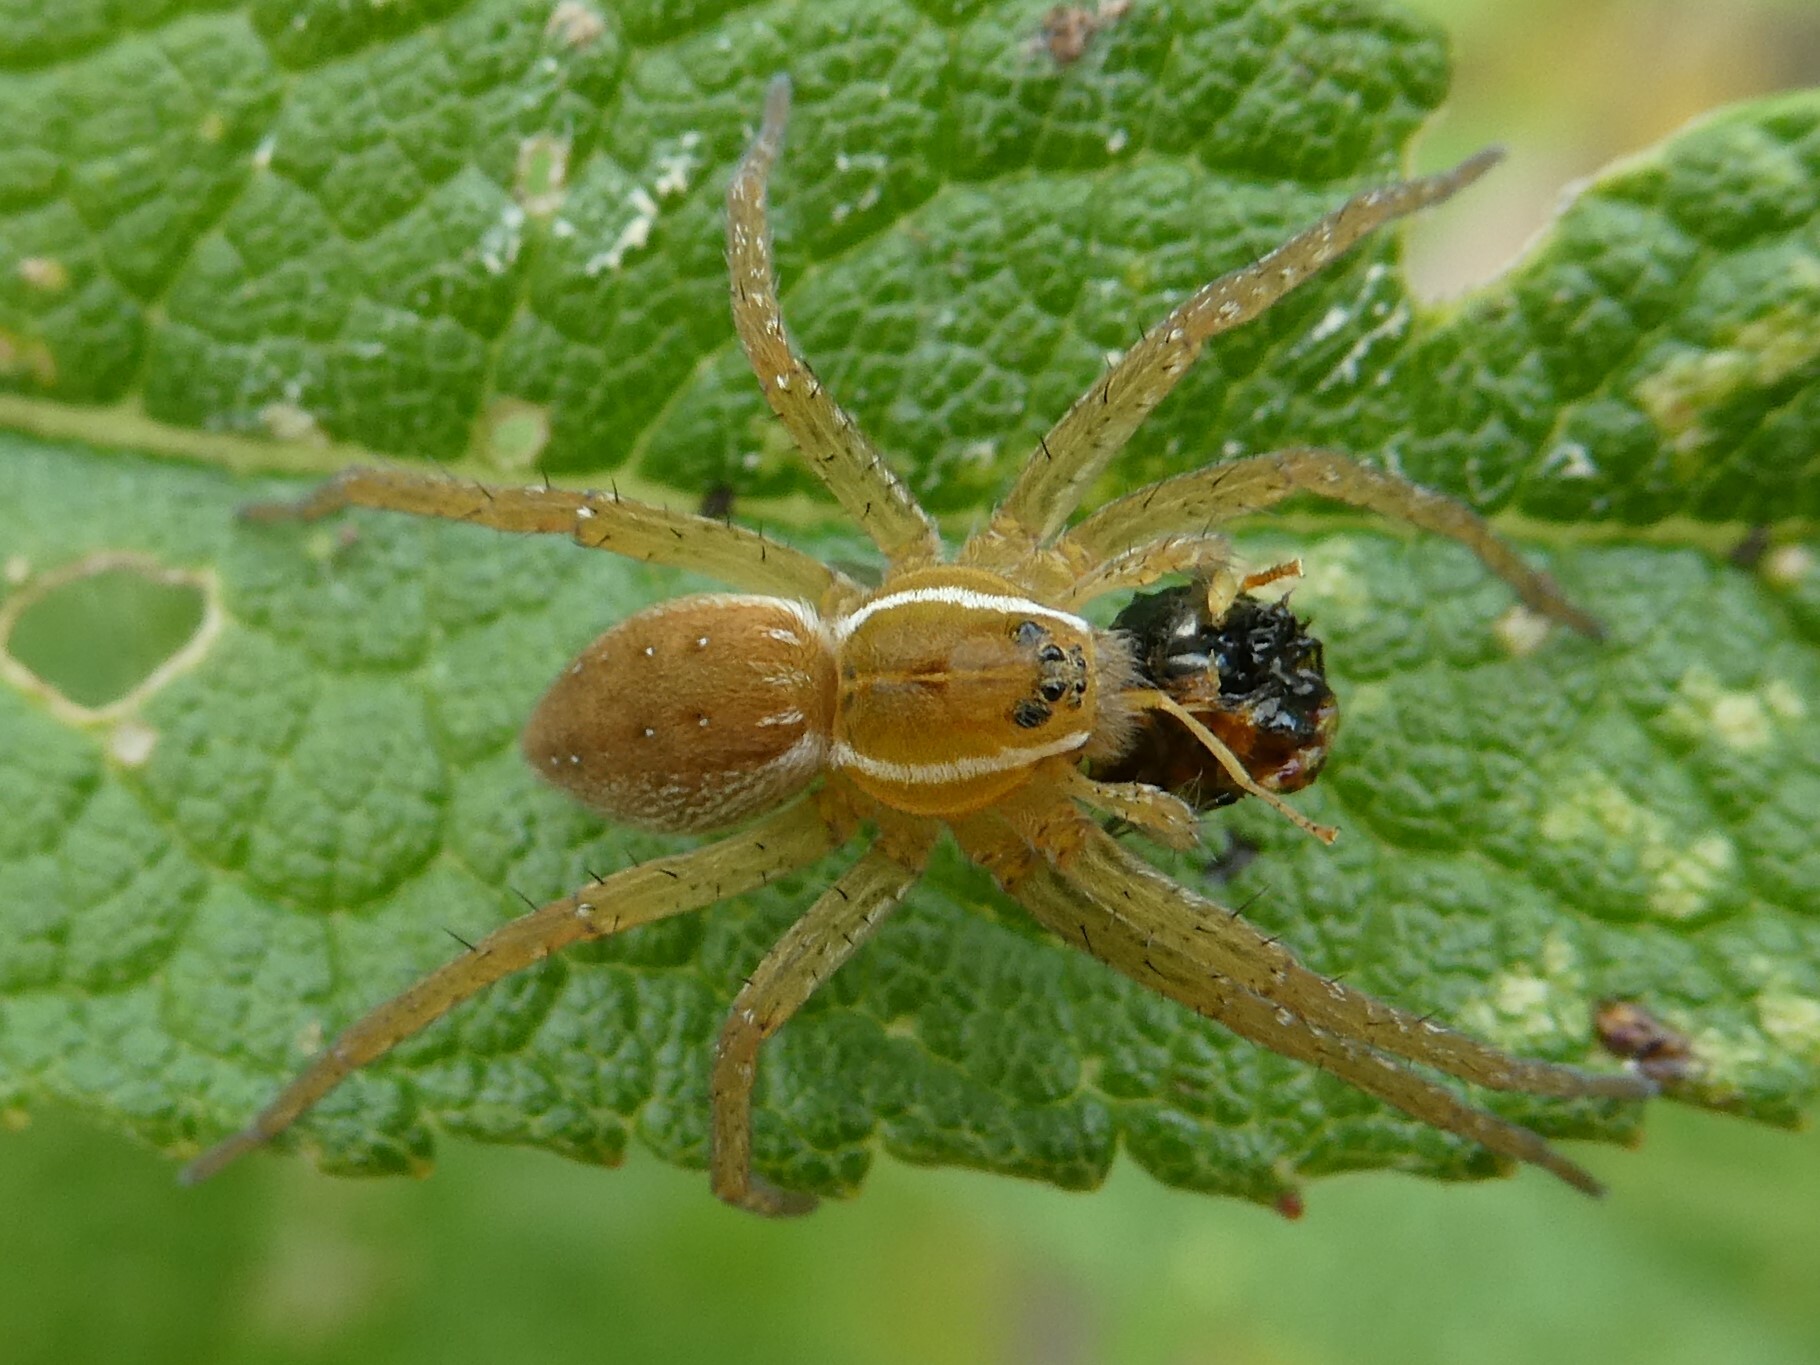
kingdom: Animalia
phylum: Arthropoda
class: Arachnida
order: Araneae
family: Pisauridae
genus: Dolomedes
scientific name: Dolomedes triton
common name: Six-spotted fishing spider
